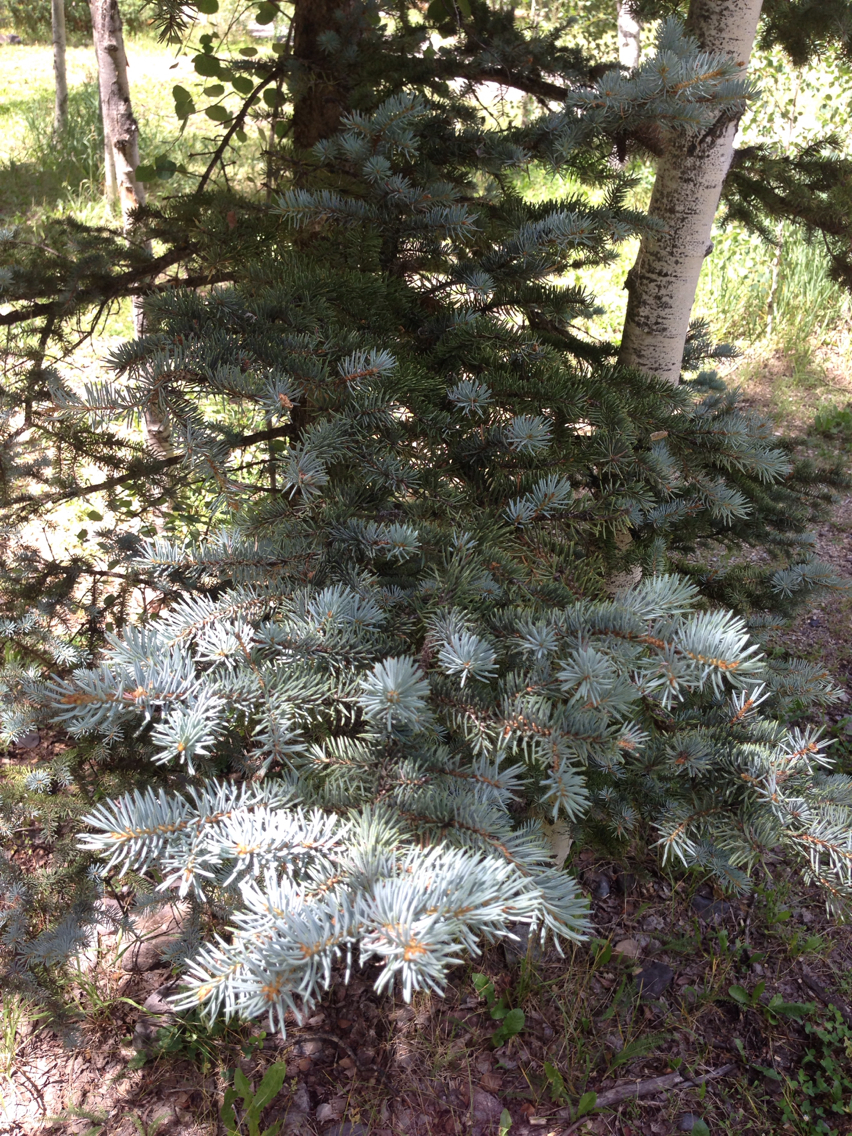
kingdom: Plantae
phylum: Tracheophyta
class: Pinopsida
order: Pinales
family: Pinaceae
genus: Picea
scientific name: Picea pungens
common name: Colorado spruce
